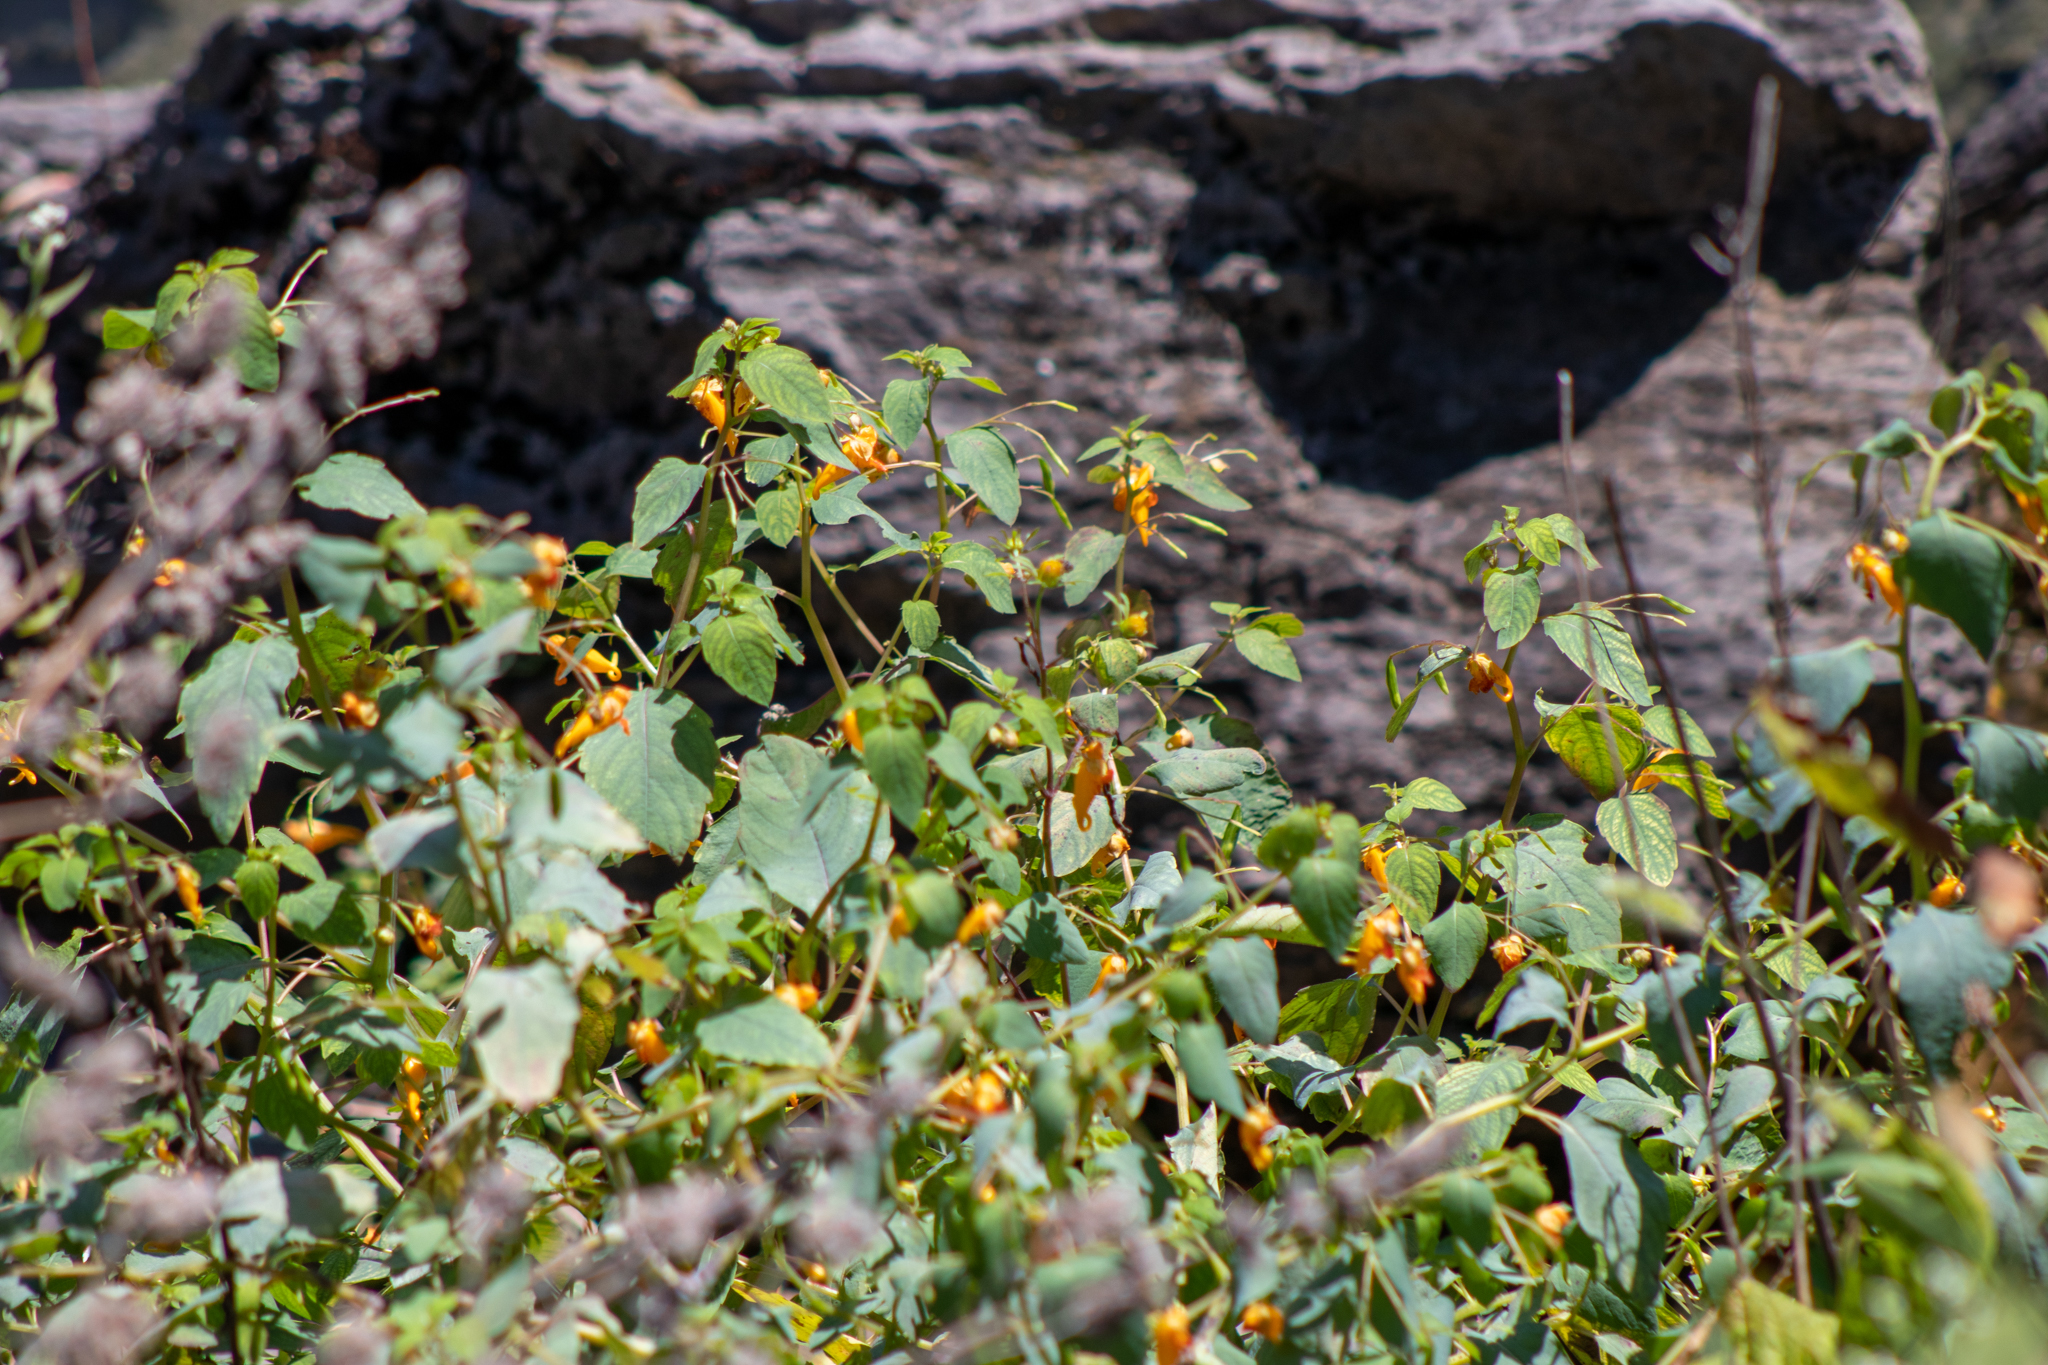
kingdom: Plantae
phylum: Tracheophyta
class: Magnoliopsida
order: Ericales
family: Balsaminaceae
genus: Impatiens
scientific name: Impatiens capensis
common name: Orange balsam
